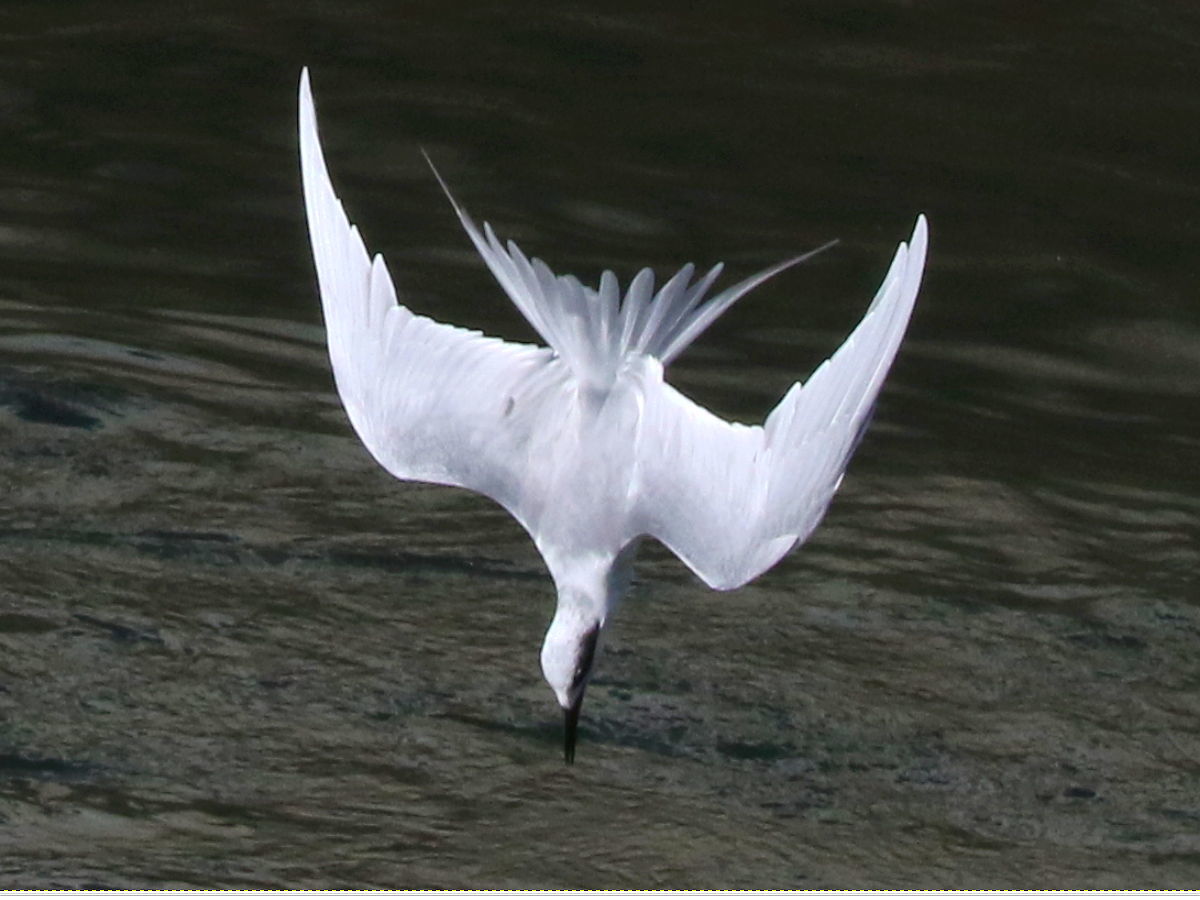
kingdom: Animalia
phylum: Chordata
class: Aves
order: Charadriiformes
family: Laridae
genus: Sterna
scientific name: Sterna forsteri
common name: Forster's tern
